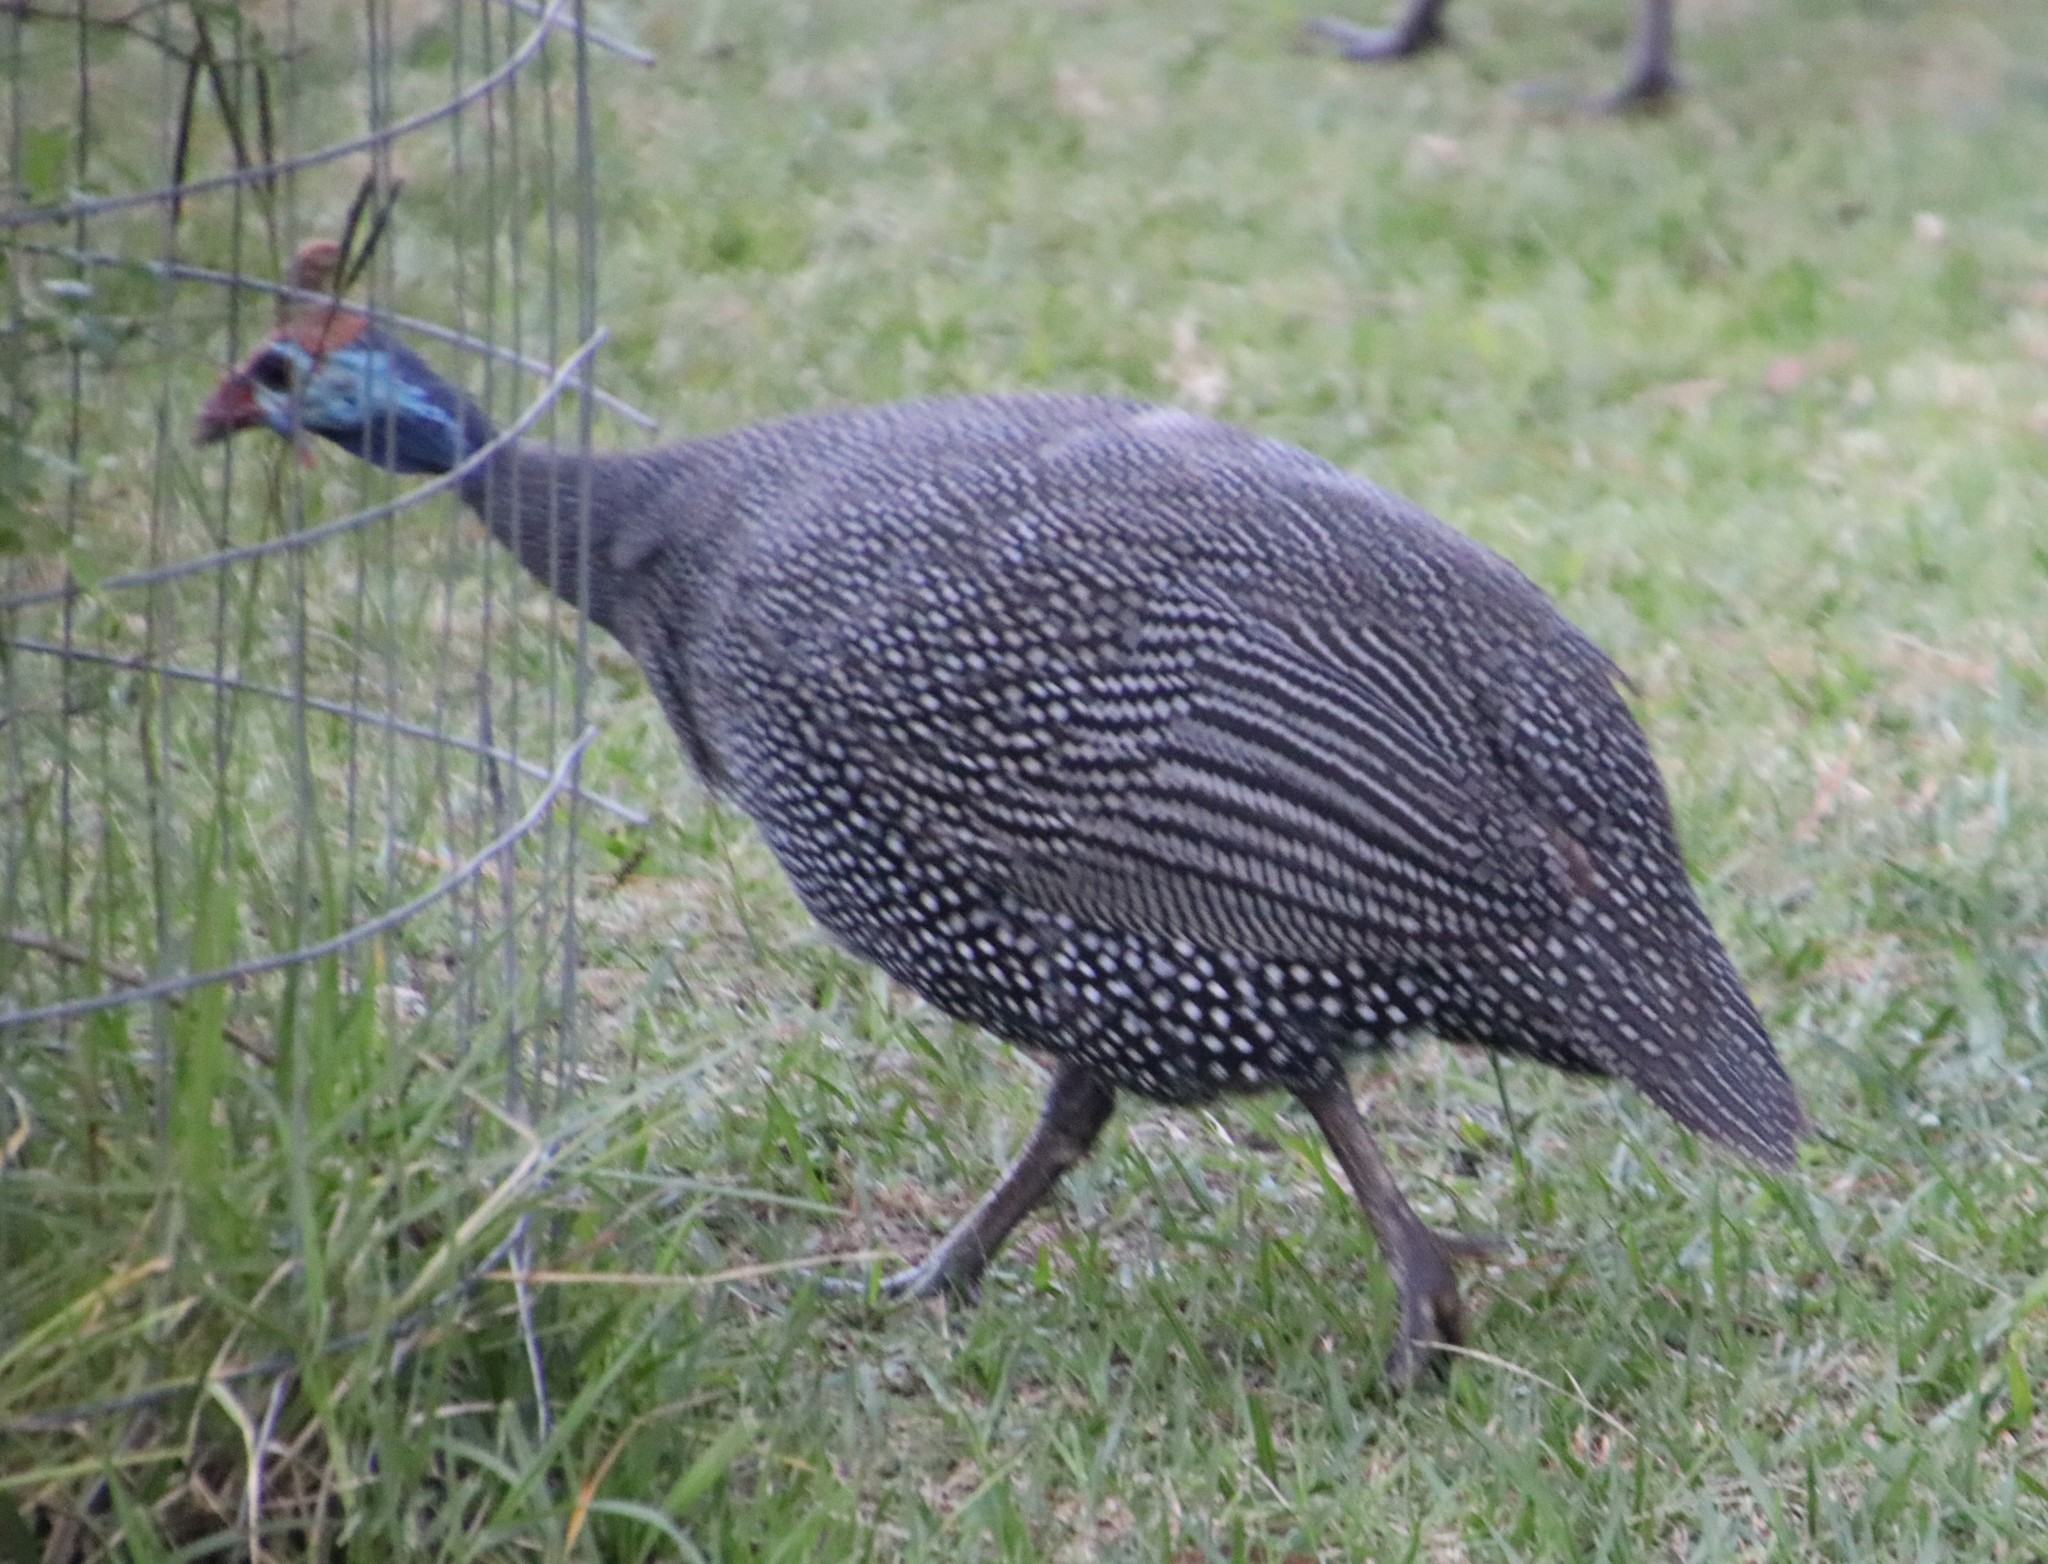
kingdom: Animalia
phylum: Chordata
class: Aves
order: Galliformes
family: Numididae
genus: Numida
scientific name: Numida meleagris
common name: Helmeted guineafowl
